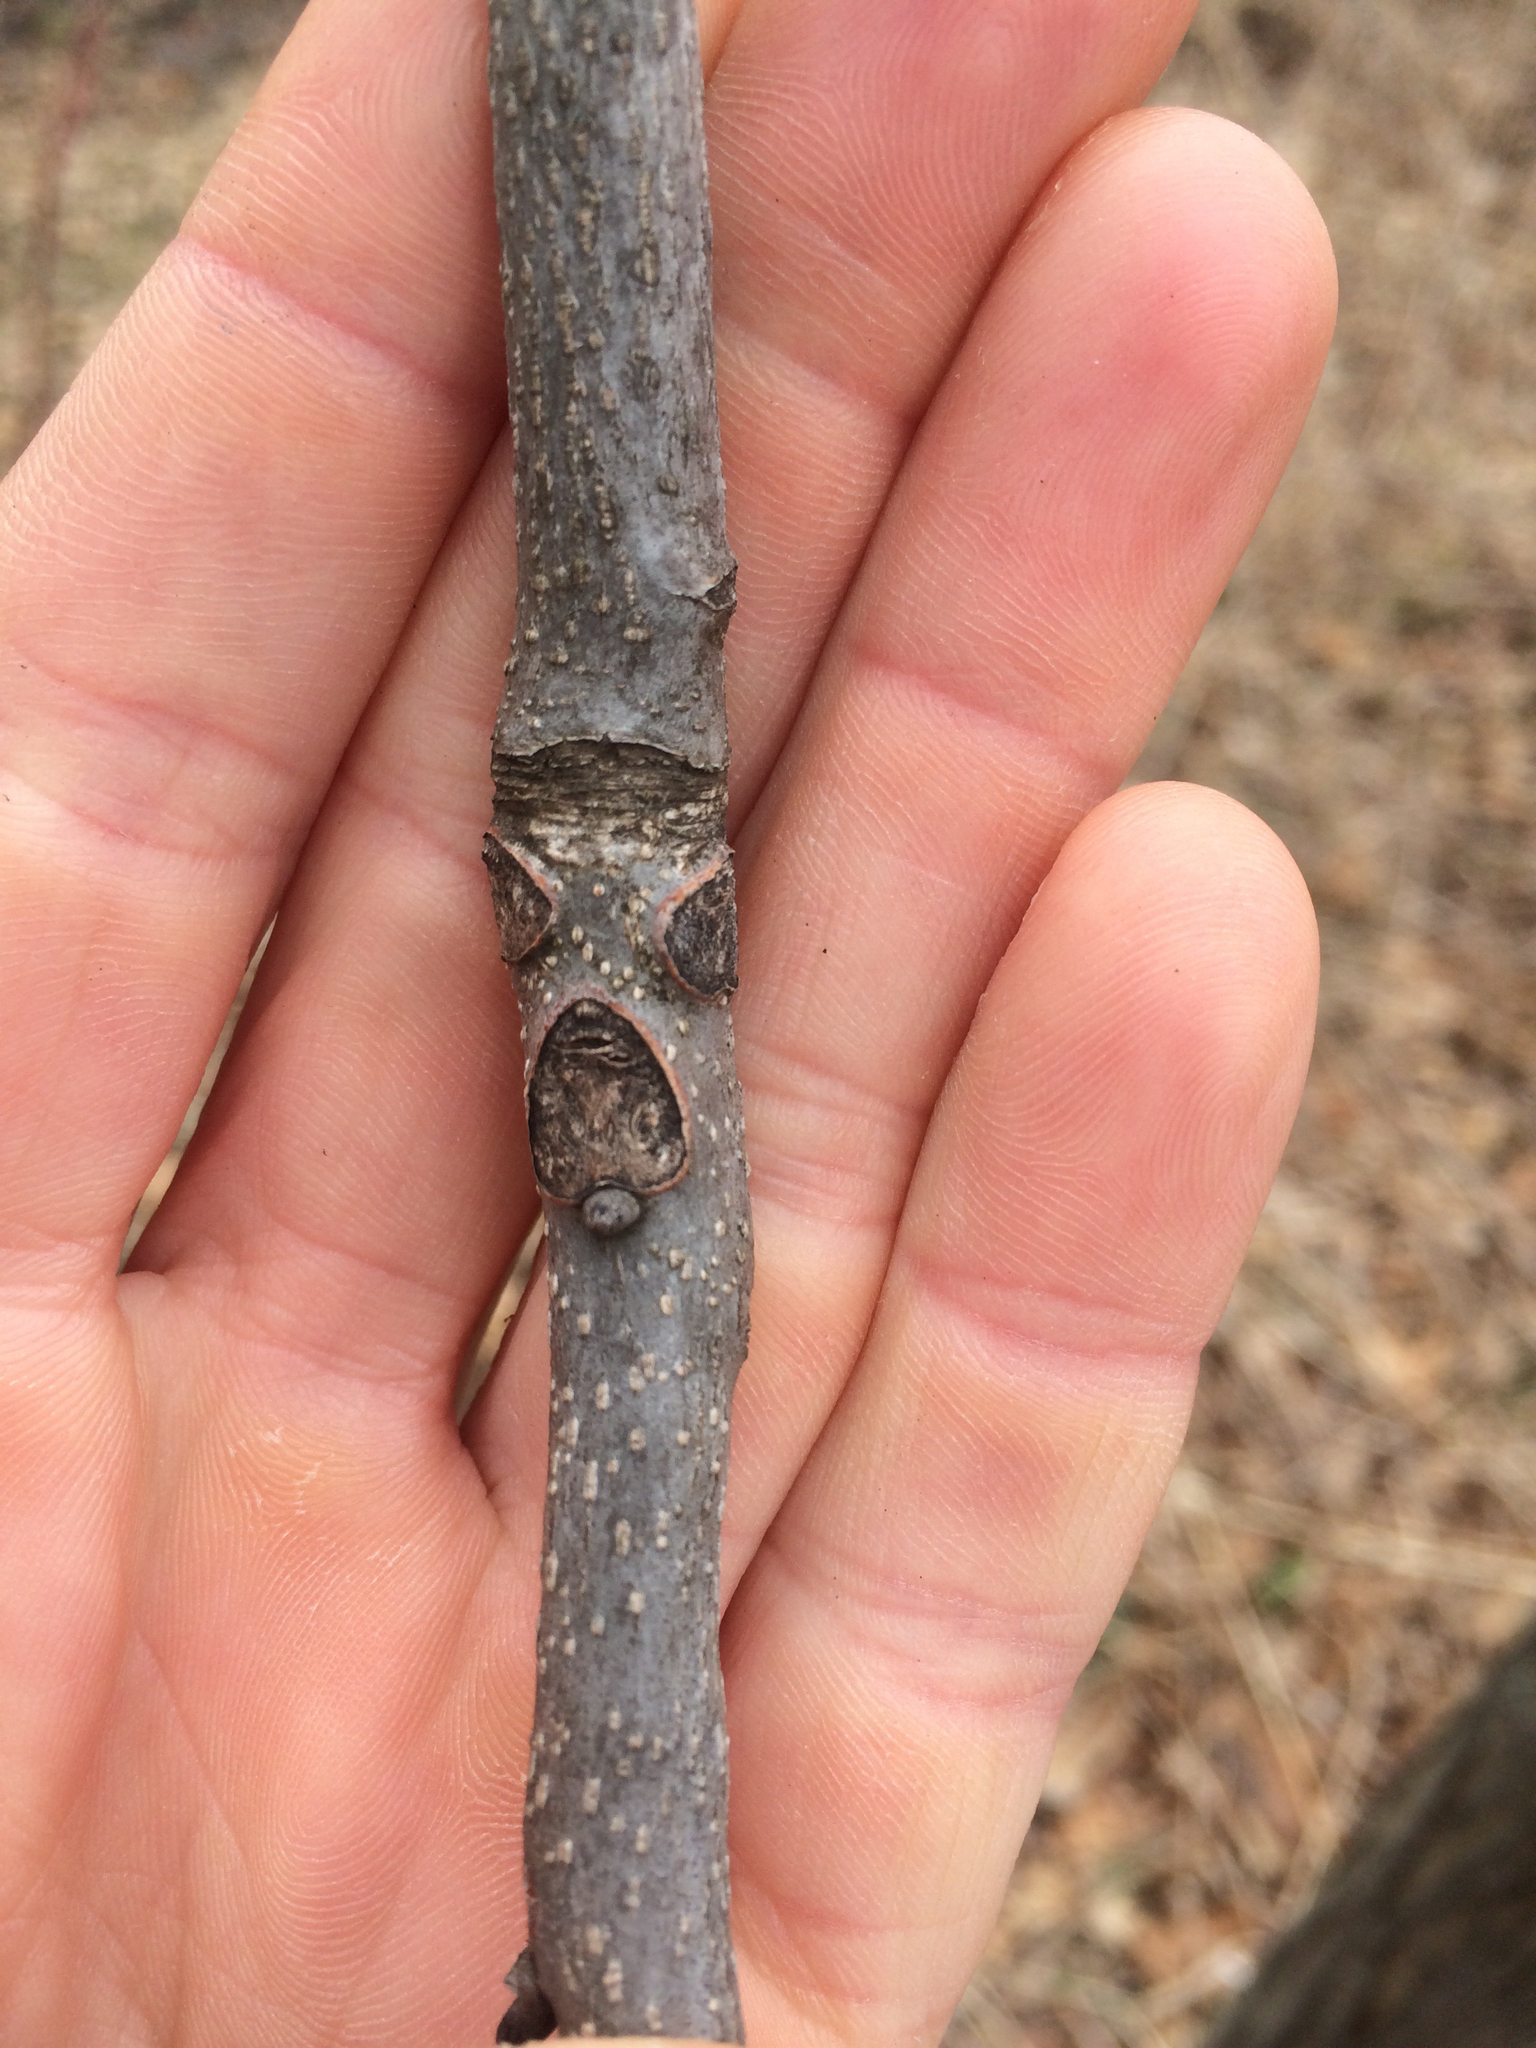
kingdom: Plantae
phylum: Tracheophyta
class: Magnoliopsida
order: Fagales
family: Juglandaceae
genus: Carya
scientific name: Carya ovata
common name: Shagbark hickory
